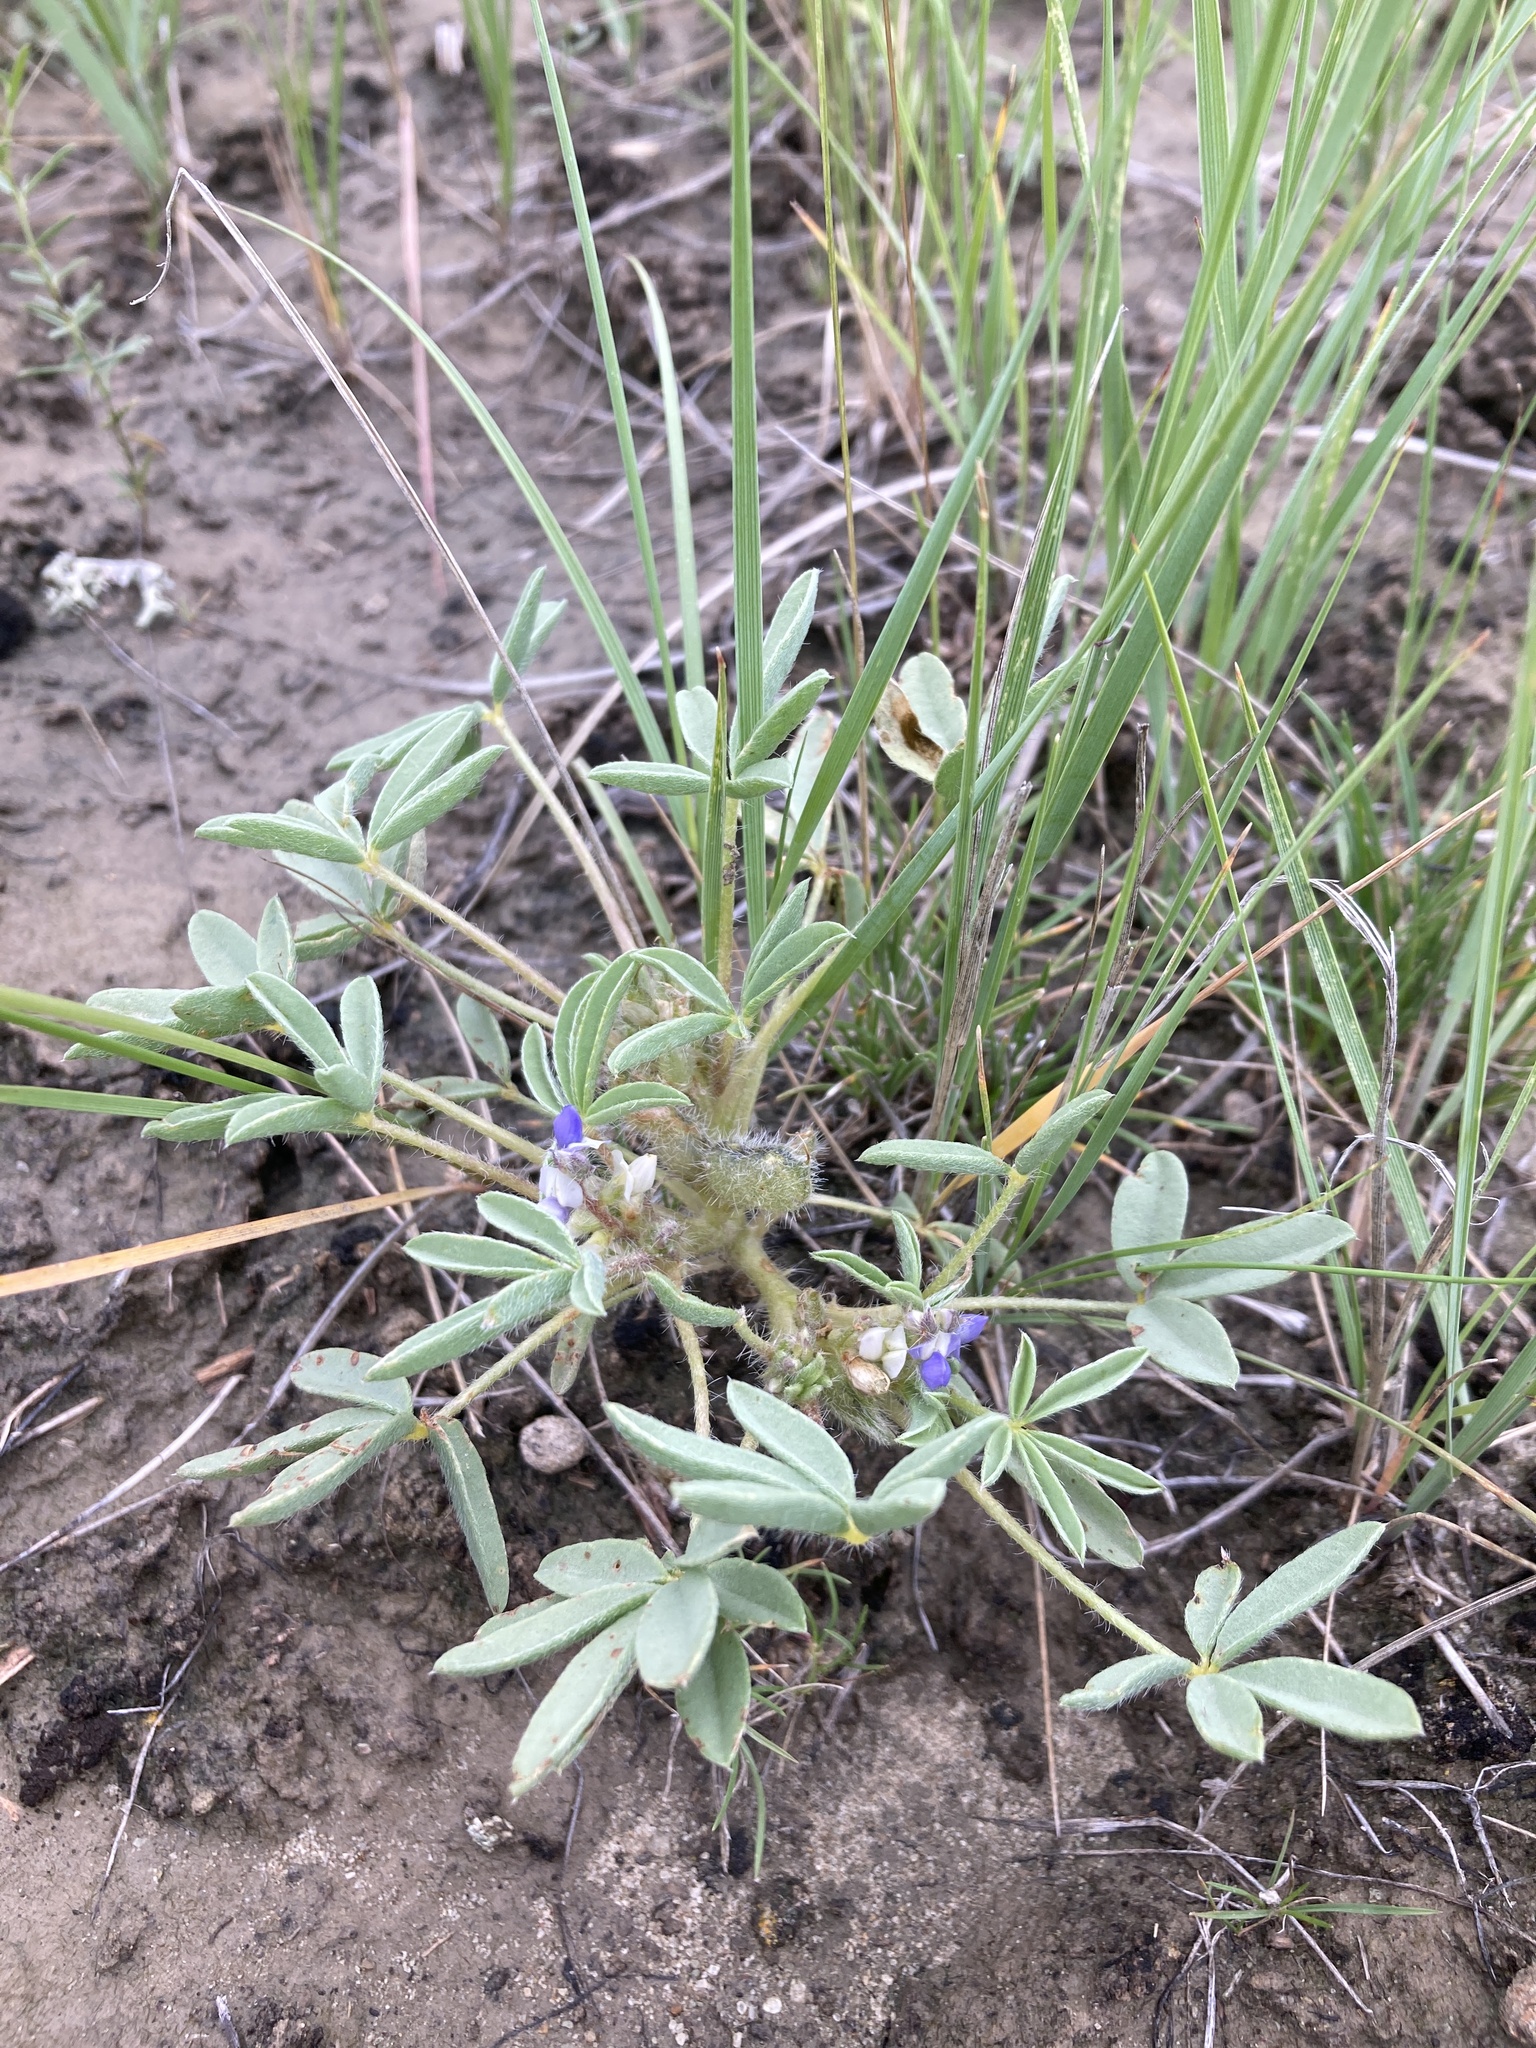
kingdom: Plantae
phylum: Tracheophyta
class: Magnoliopsida
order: Fabales
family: Fabaceae
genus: Lupinus
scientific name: Lupinus pusillus
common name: Low lupine
